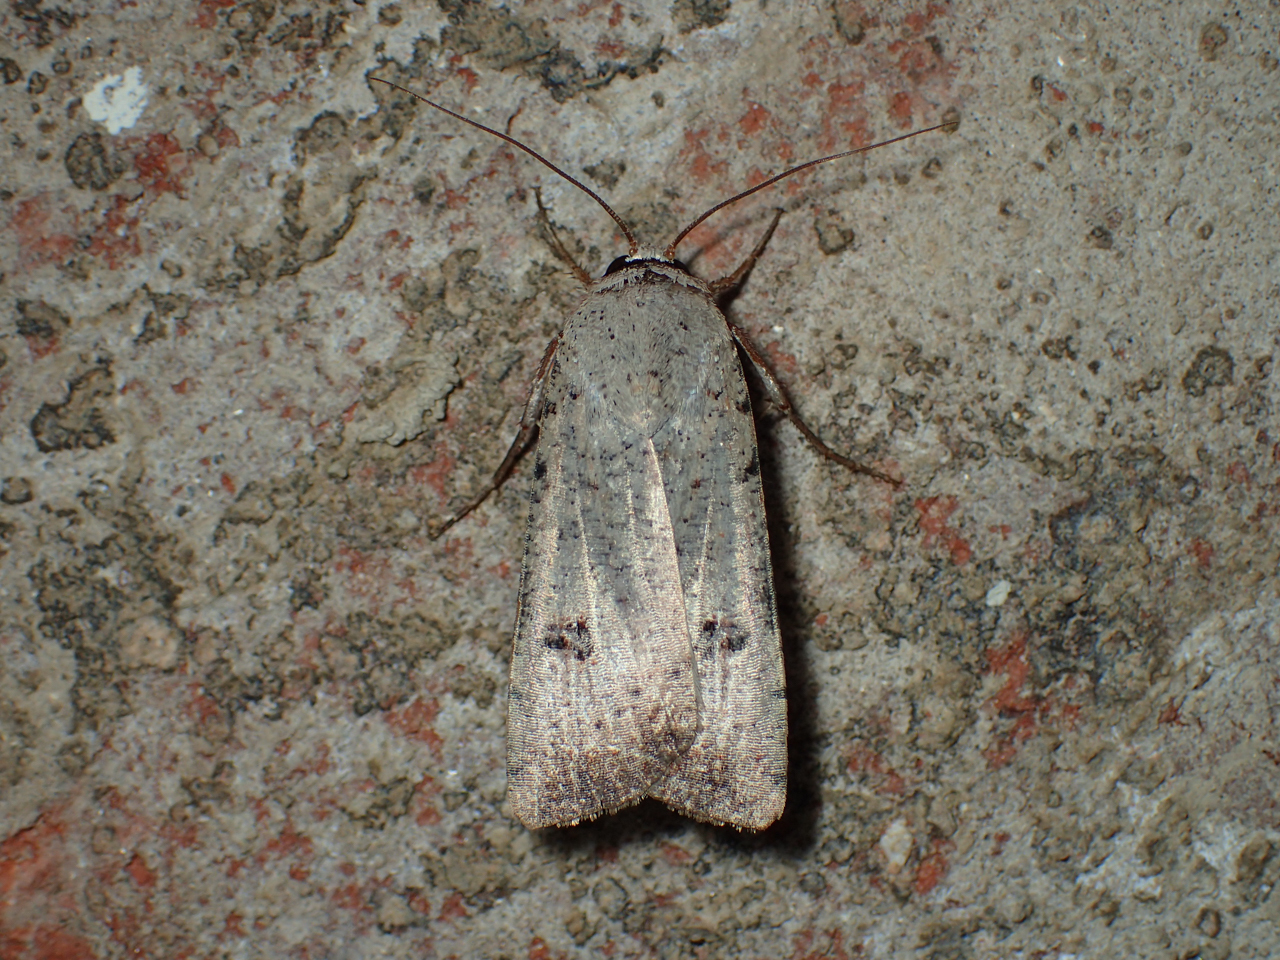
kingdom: Animalia
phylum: Arthropoda
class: Insecta
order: Lepidoptera
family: Noctuidae
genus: Anicla
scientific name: Anicla infecta
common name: Green cutworm
